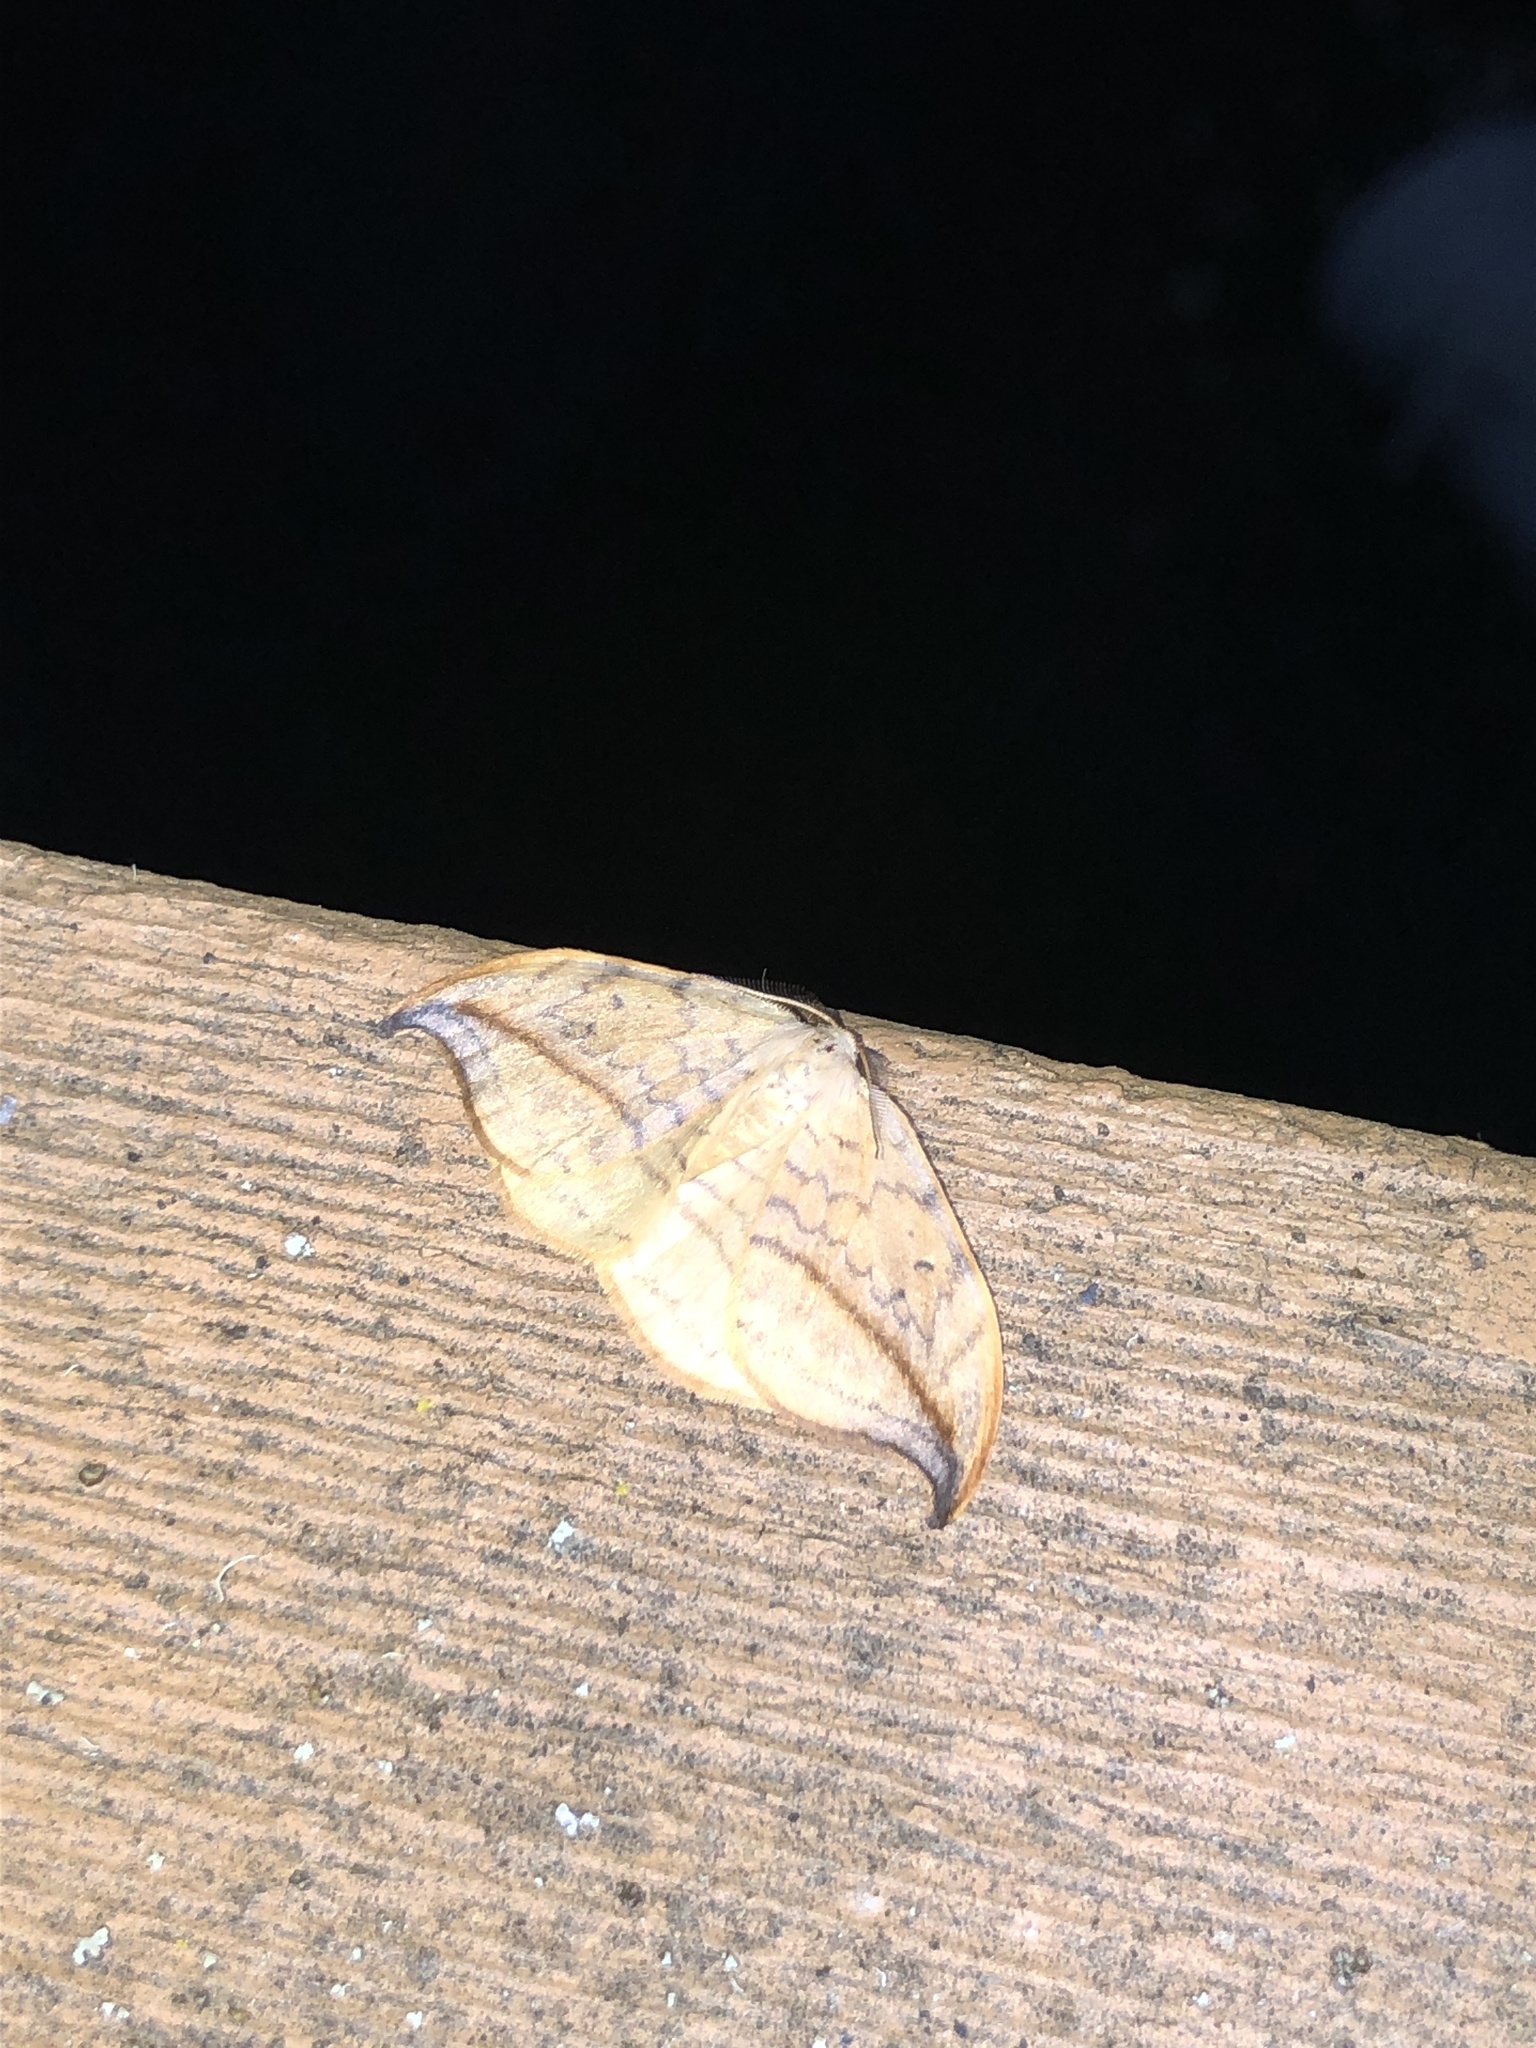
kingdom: Animalia
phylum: Arthropoda
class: Insecta
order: Lepidoptera
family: Drepanidae
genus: Drepana
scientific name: Drepana arcuata
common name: Arched hooktip moth
